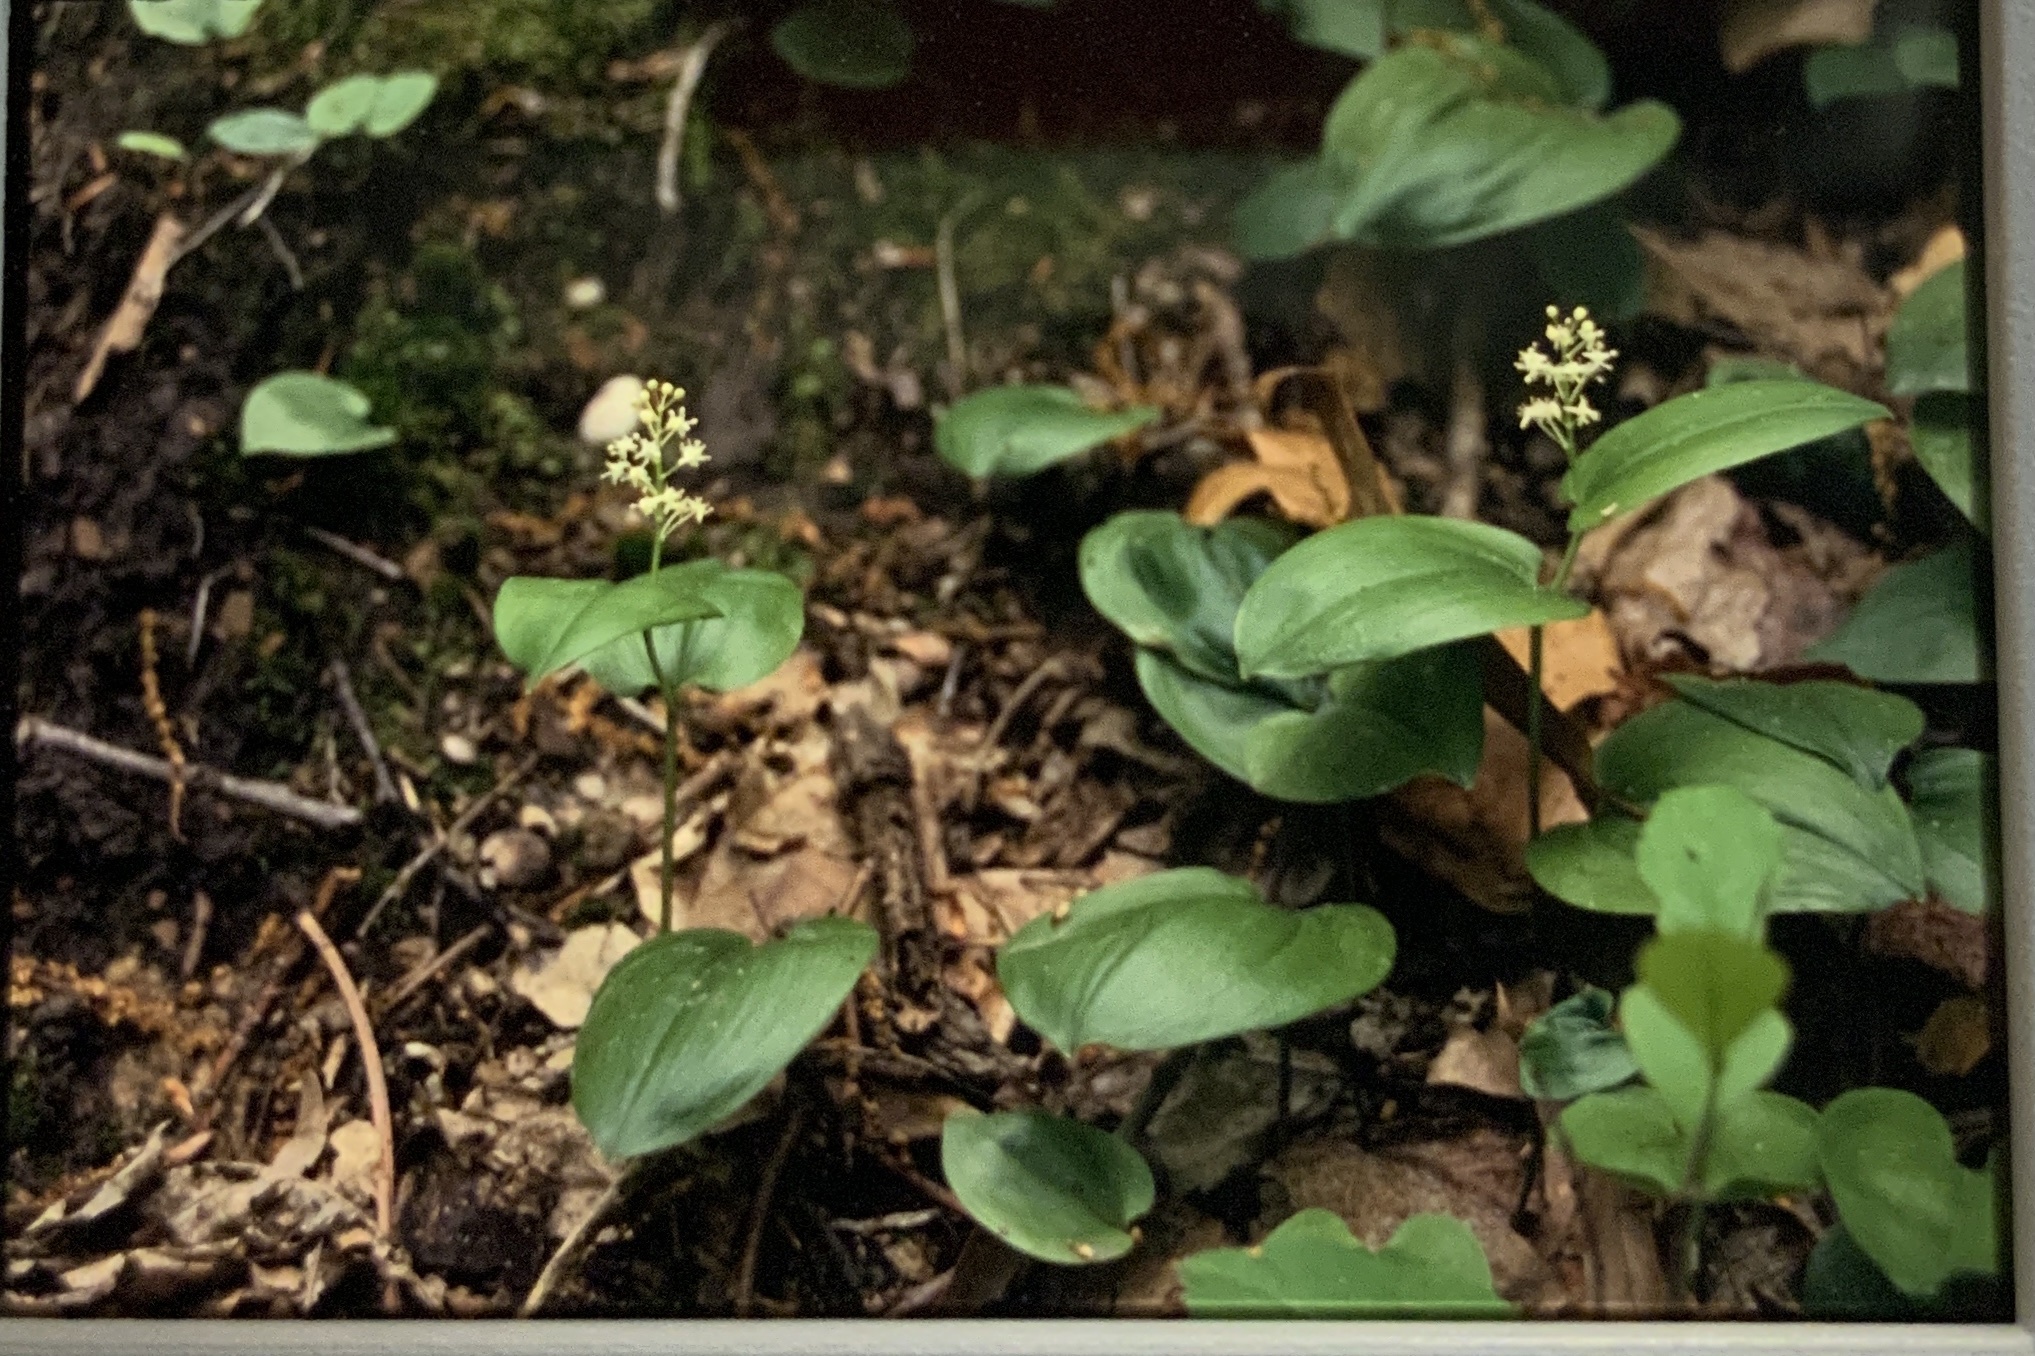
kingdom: Plantae
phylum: Tracheophyta
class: Liliopsida
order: Asparagales
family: Asparagaceae
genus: Maianthemum
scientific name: Maianthemum canadense
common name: False lily-of-the-valley
